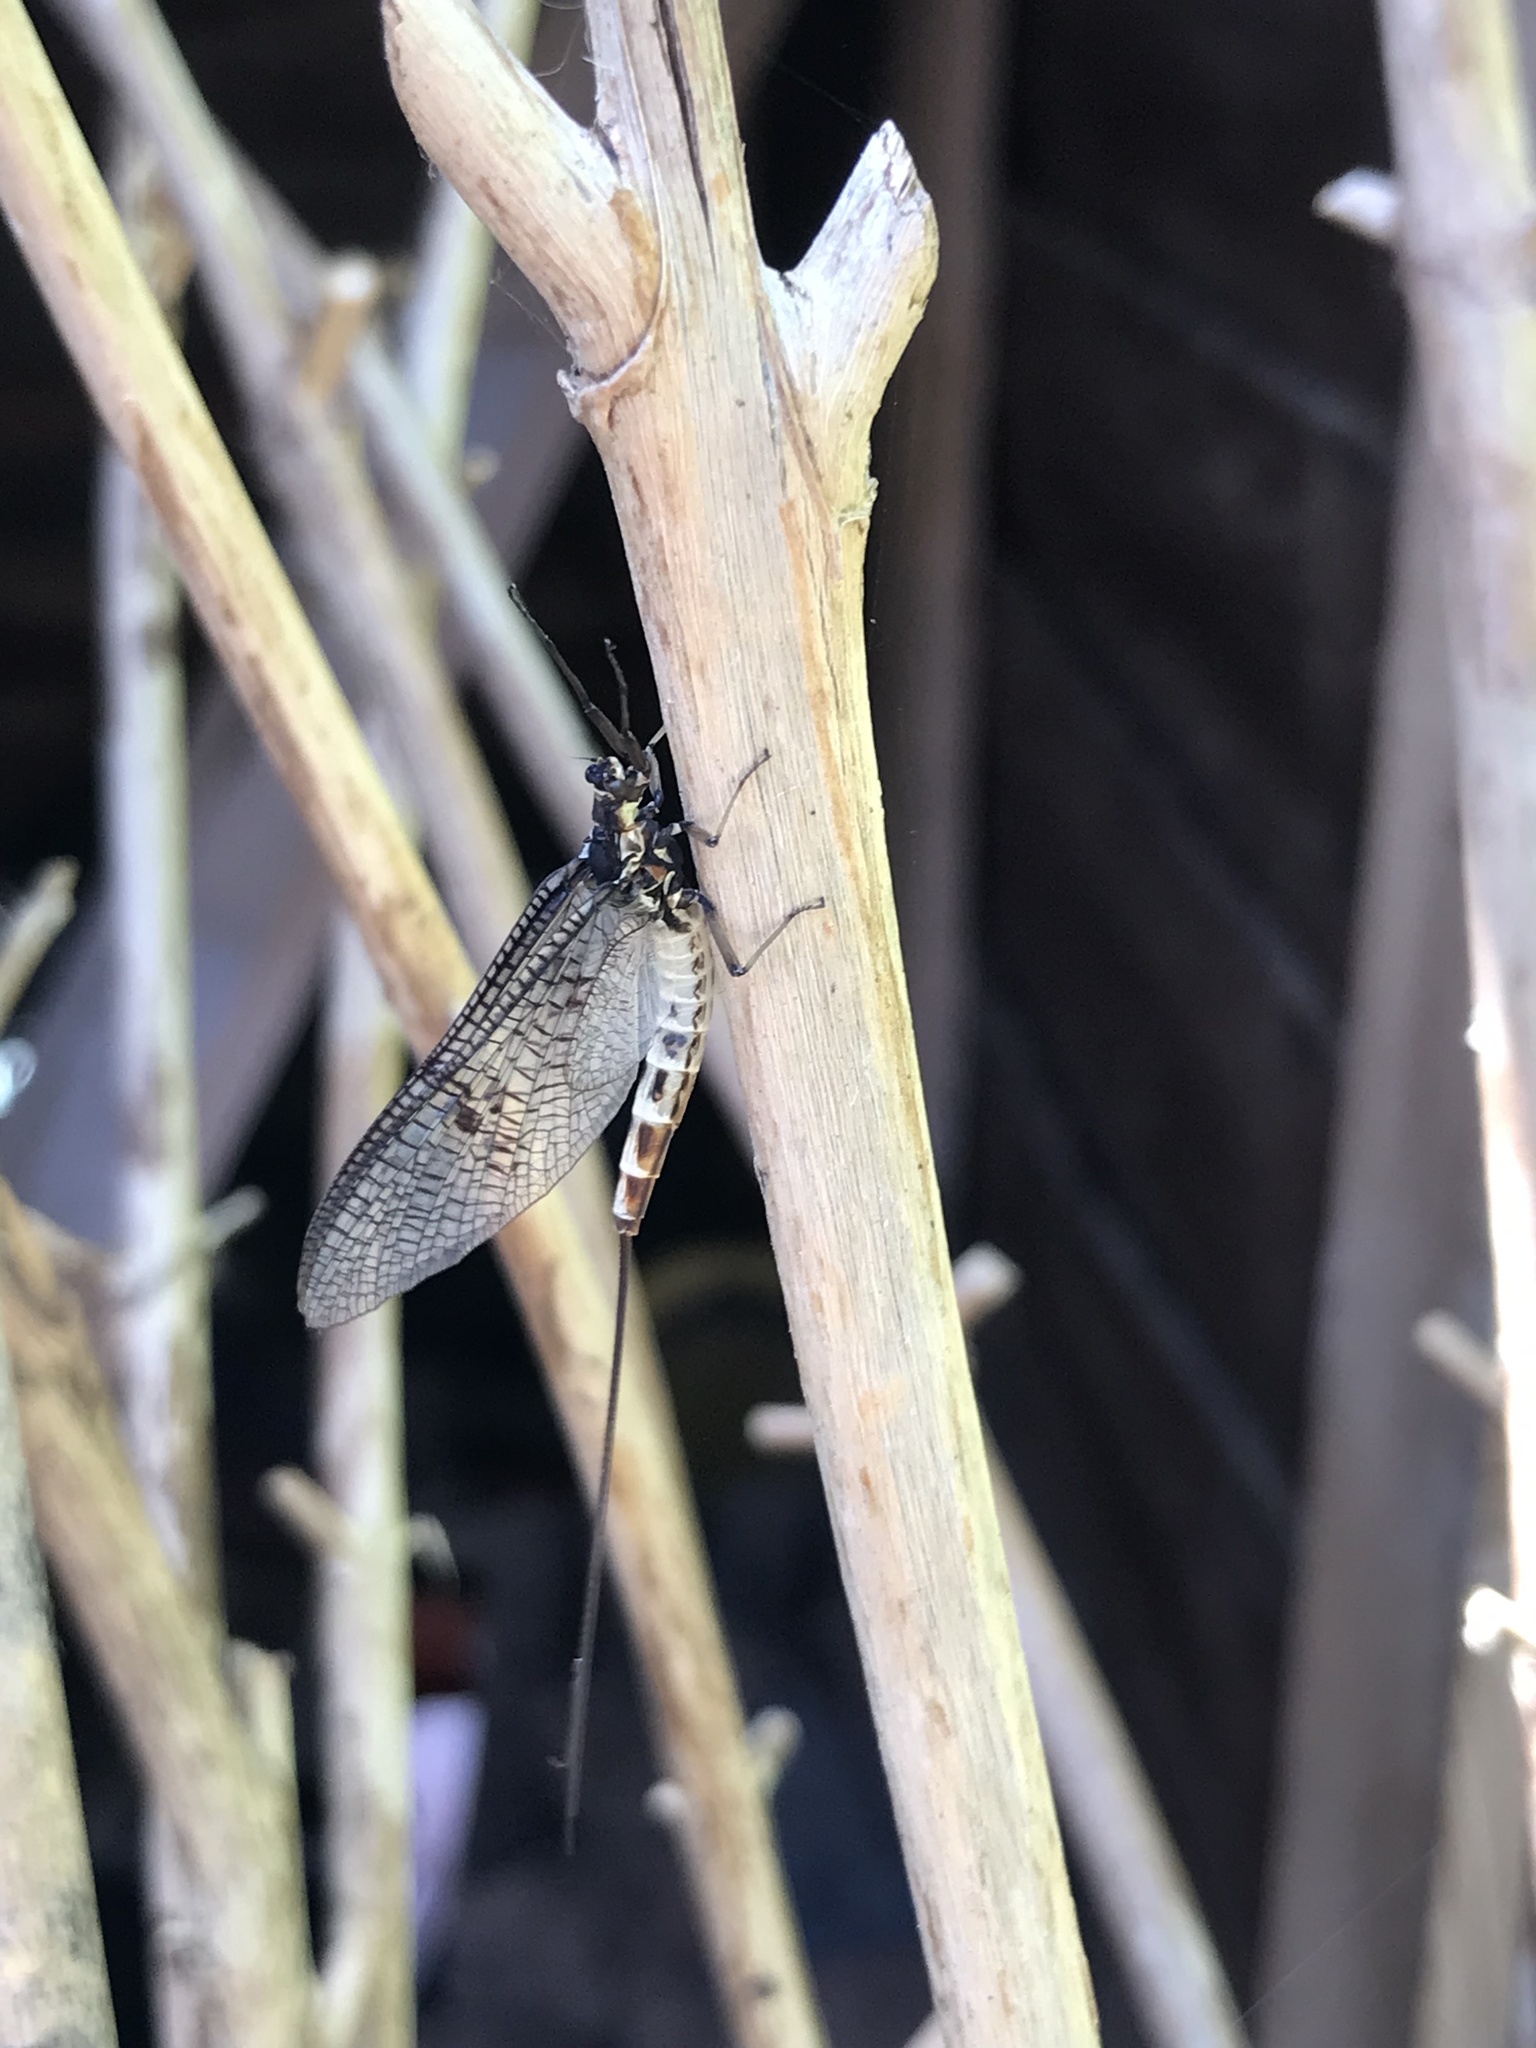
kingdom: Animalia
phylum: Arthropoda
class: Insecta
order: Ephemeroptera
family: Ephemeridae
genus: Ephemera
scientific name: Ephemera danica
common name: Green dun
